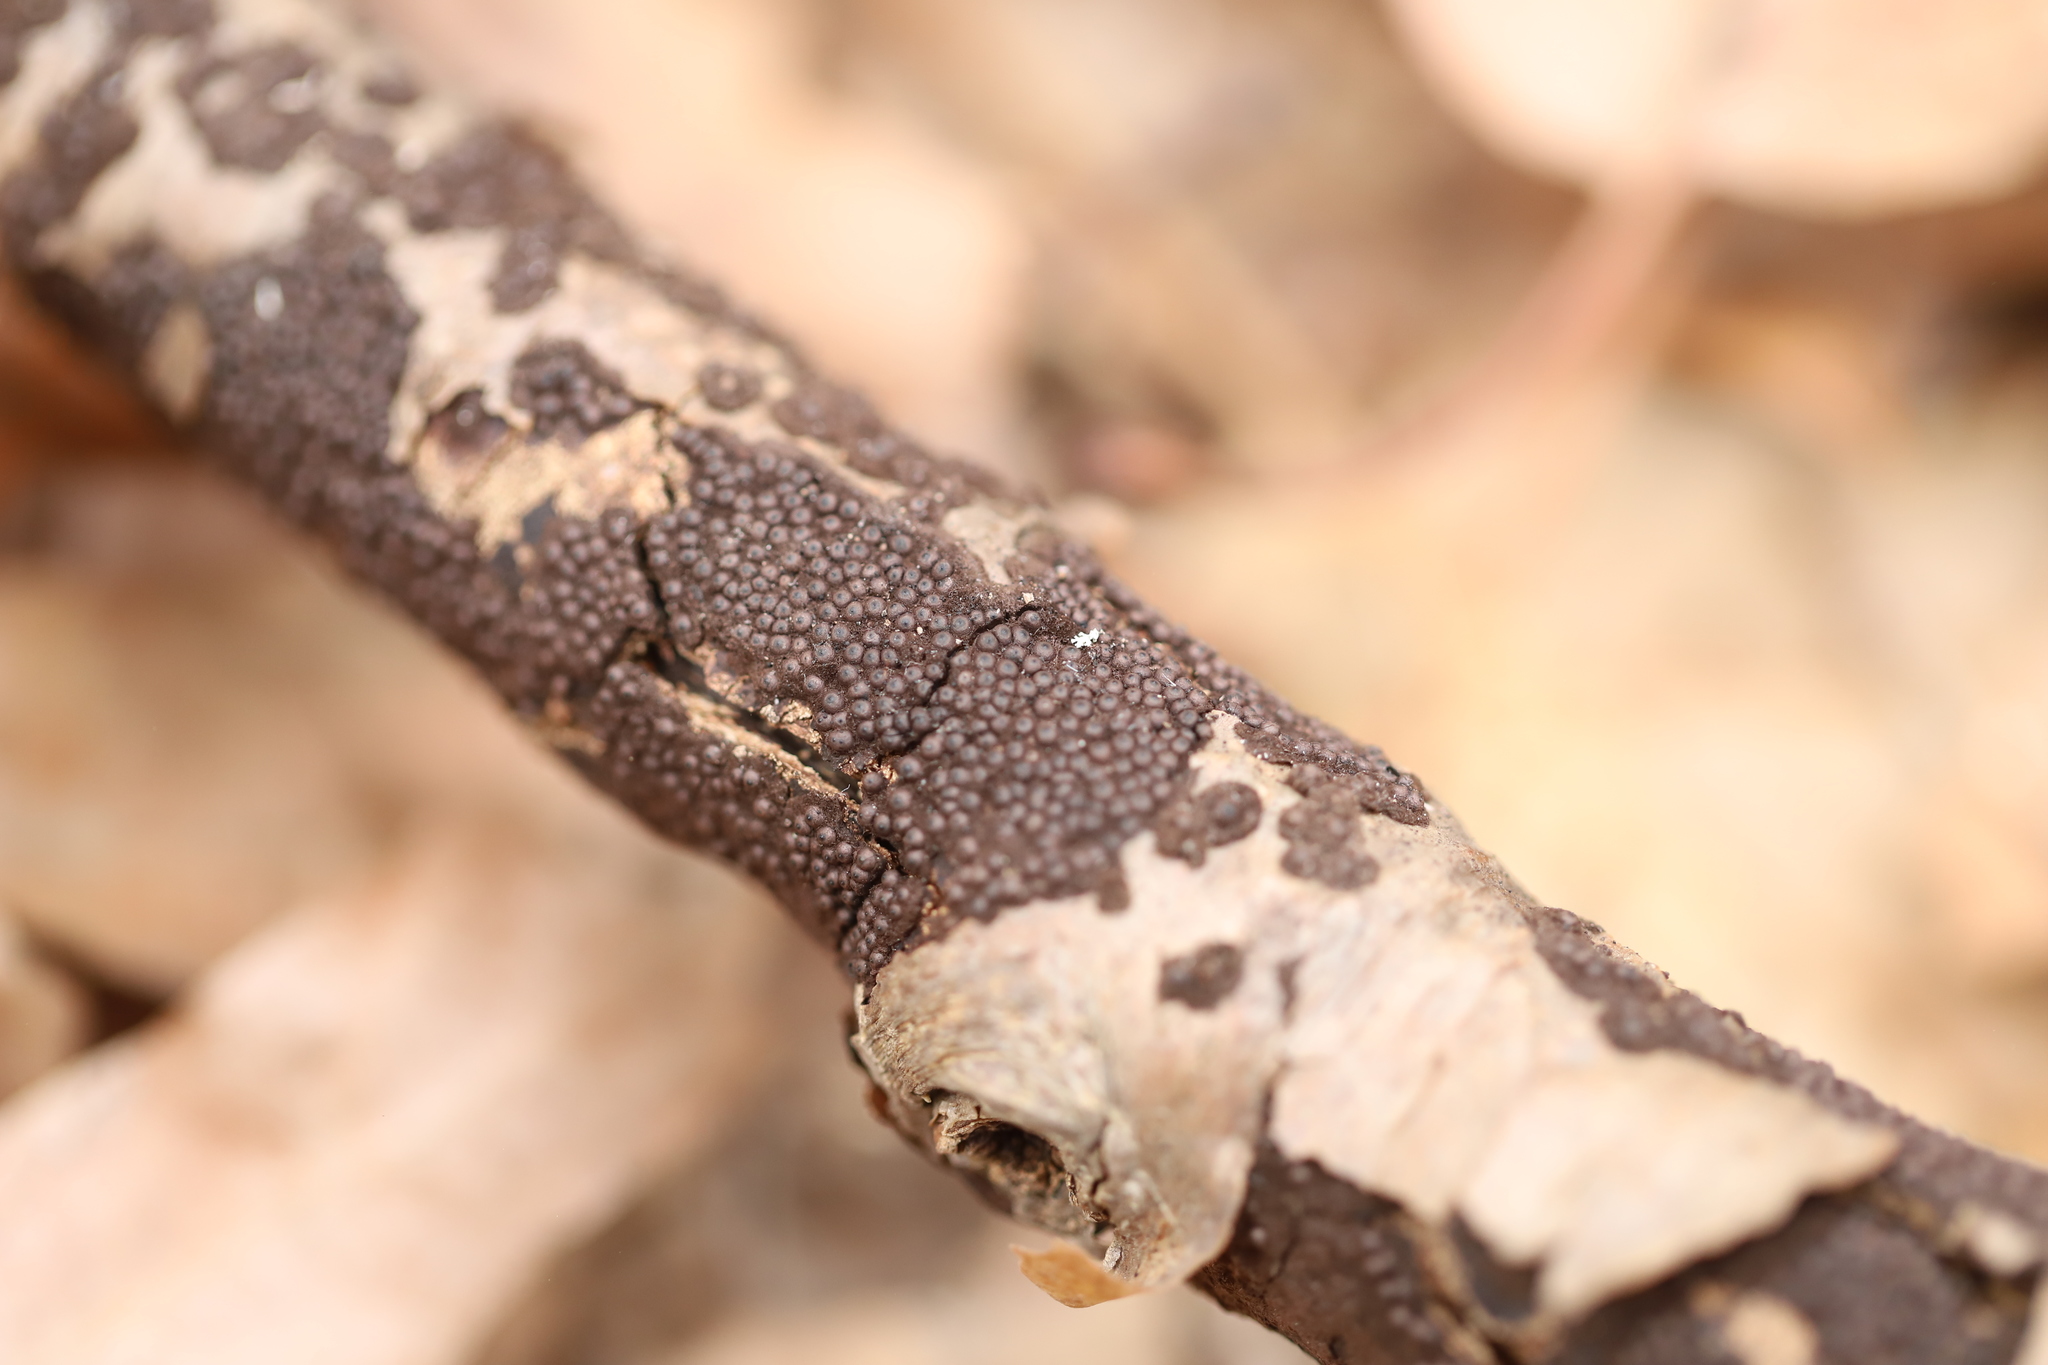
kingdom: Fungi
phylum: Ascomycota
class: Sordariomycetes
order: Xylariales
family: Xylariaceae
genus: Rosellinia
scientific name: Rosellinia corticium
